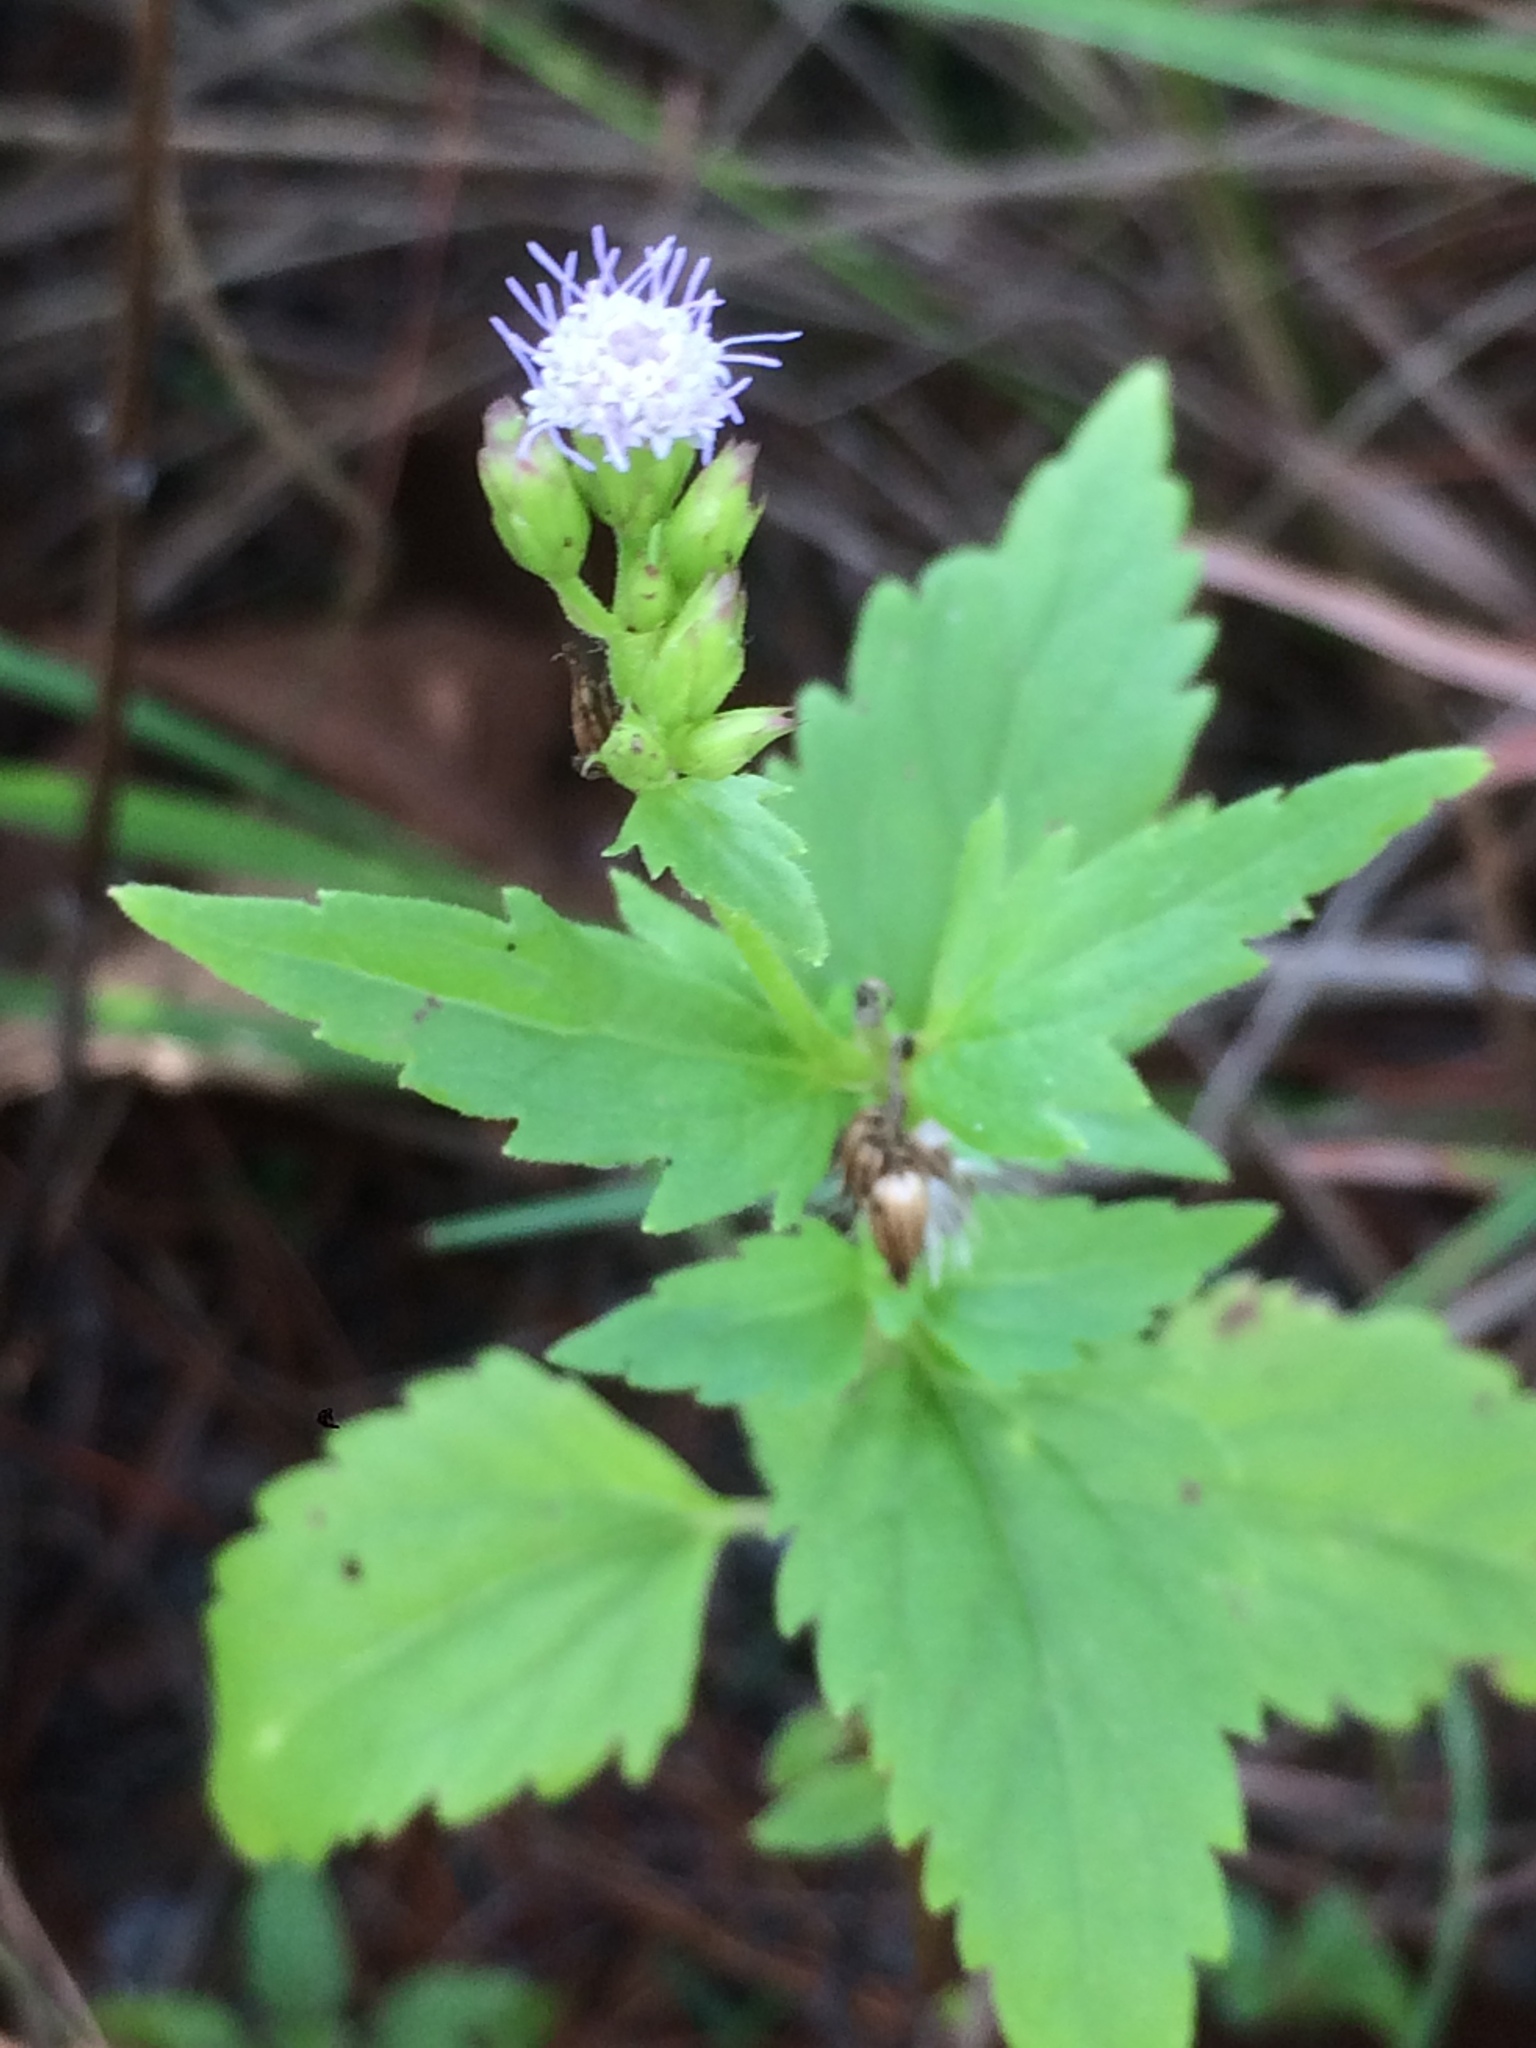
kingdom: Plantae
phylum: Tracheophyta
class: Magnoliopsida
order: Asterales
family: Asteraceae
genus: Conoclinium
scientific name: Conoclinium coelestinum
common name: Blue mistflower
